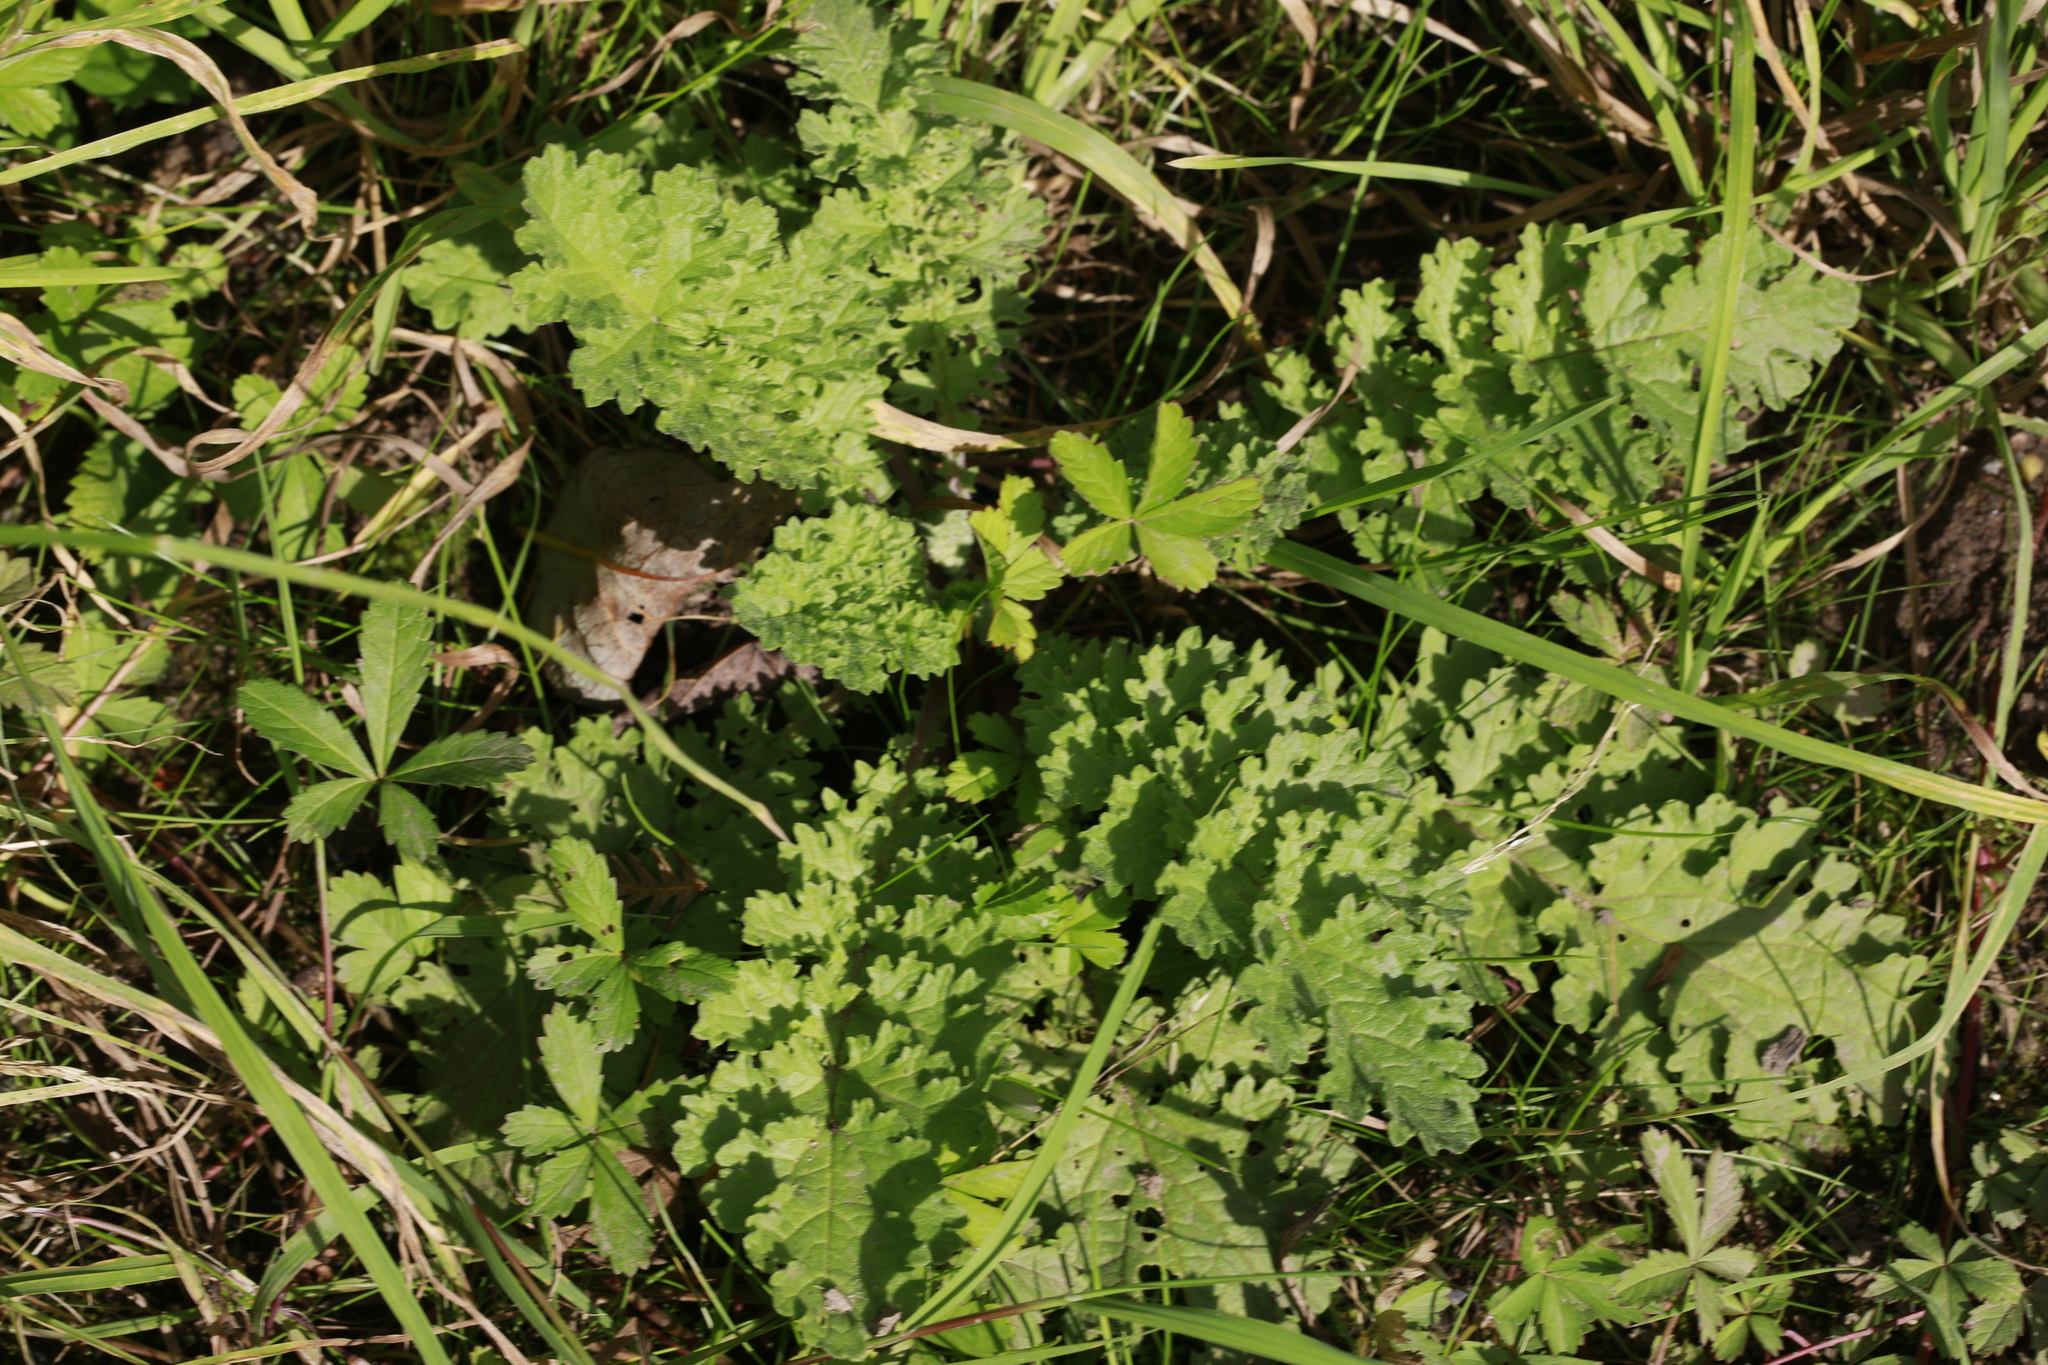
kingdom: Plantae
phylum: Tracheophyta
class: Magnoliopsida
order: Asterales
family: Asteraceae
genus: Jacobaea
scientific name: Jacobaea vulgaris
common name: Stinking willie
